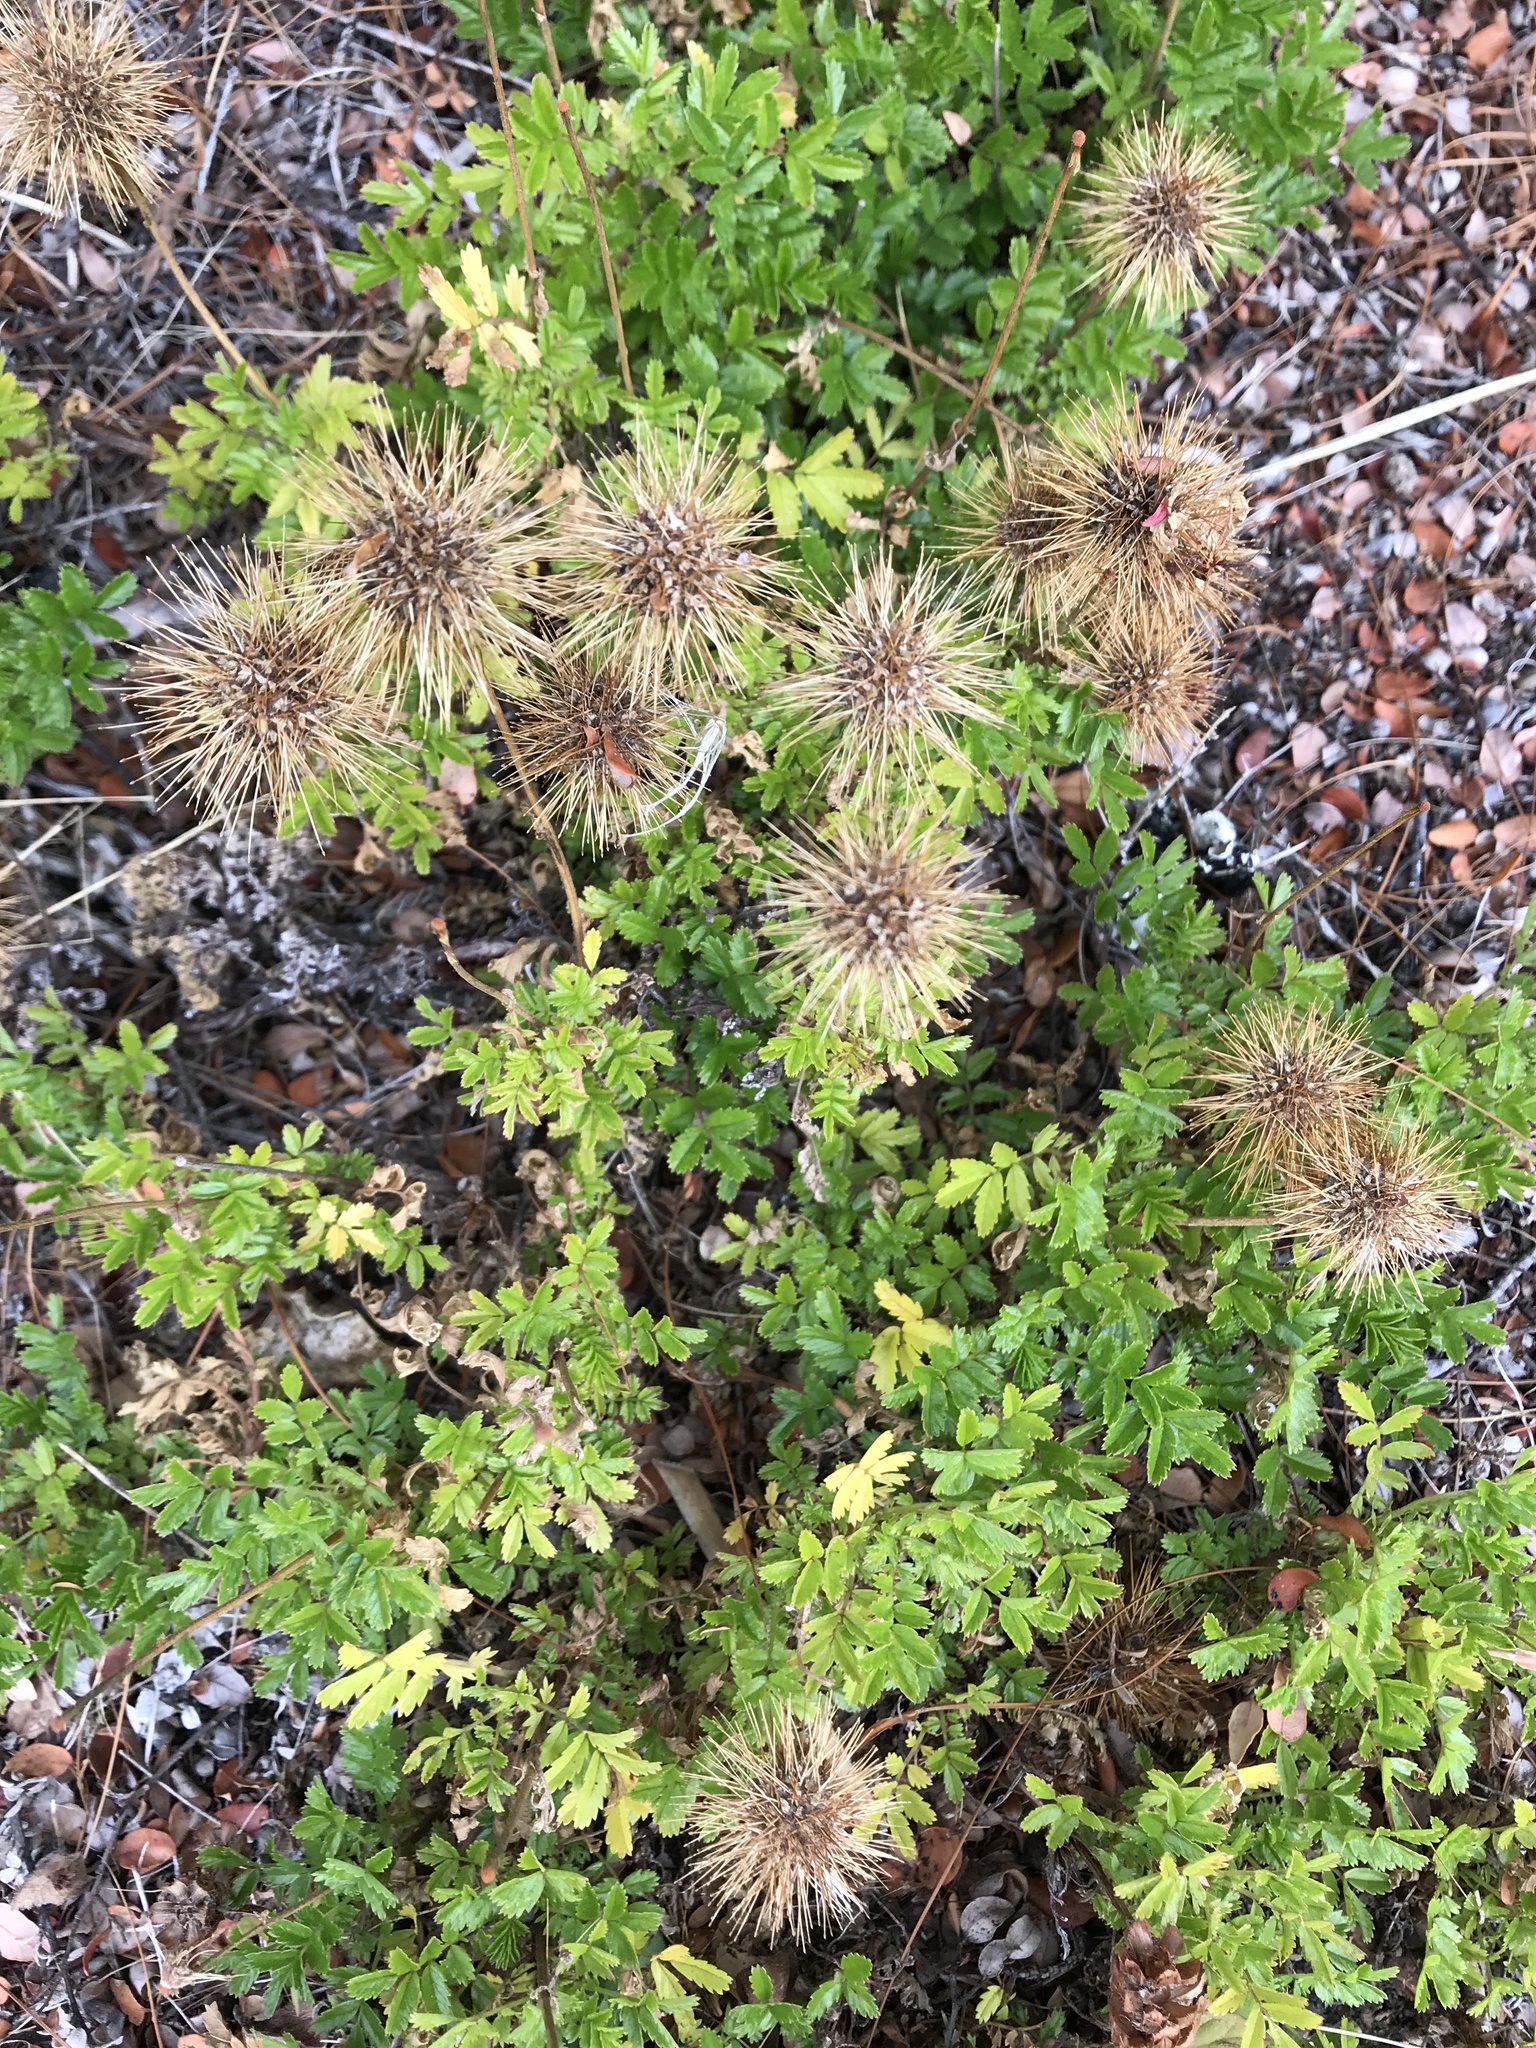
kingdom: Plantae
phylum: Tracheophyta
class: Magnoliopsida
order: Rosales
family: Rosaceae
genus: Acaena
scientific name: Acaena novae-zelandiae
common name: Pirri-pirri-bur
